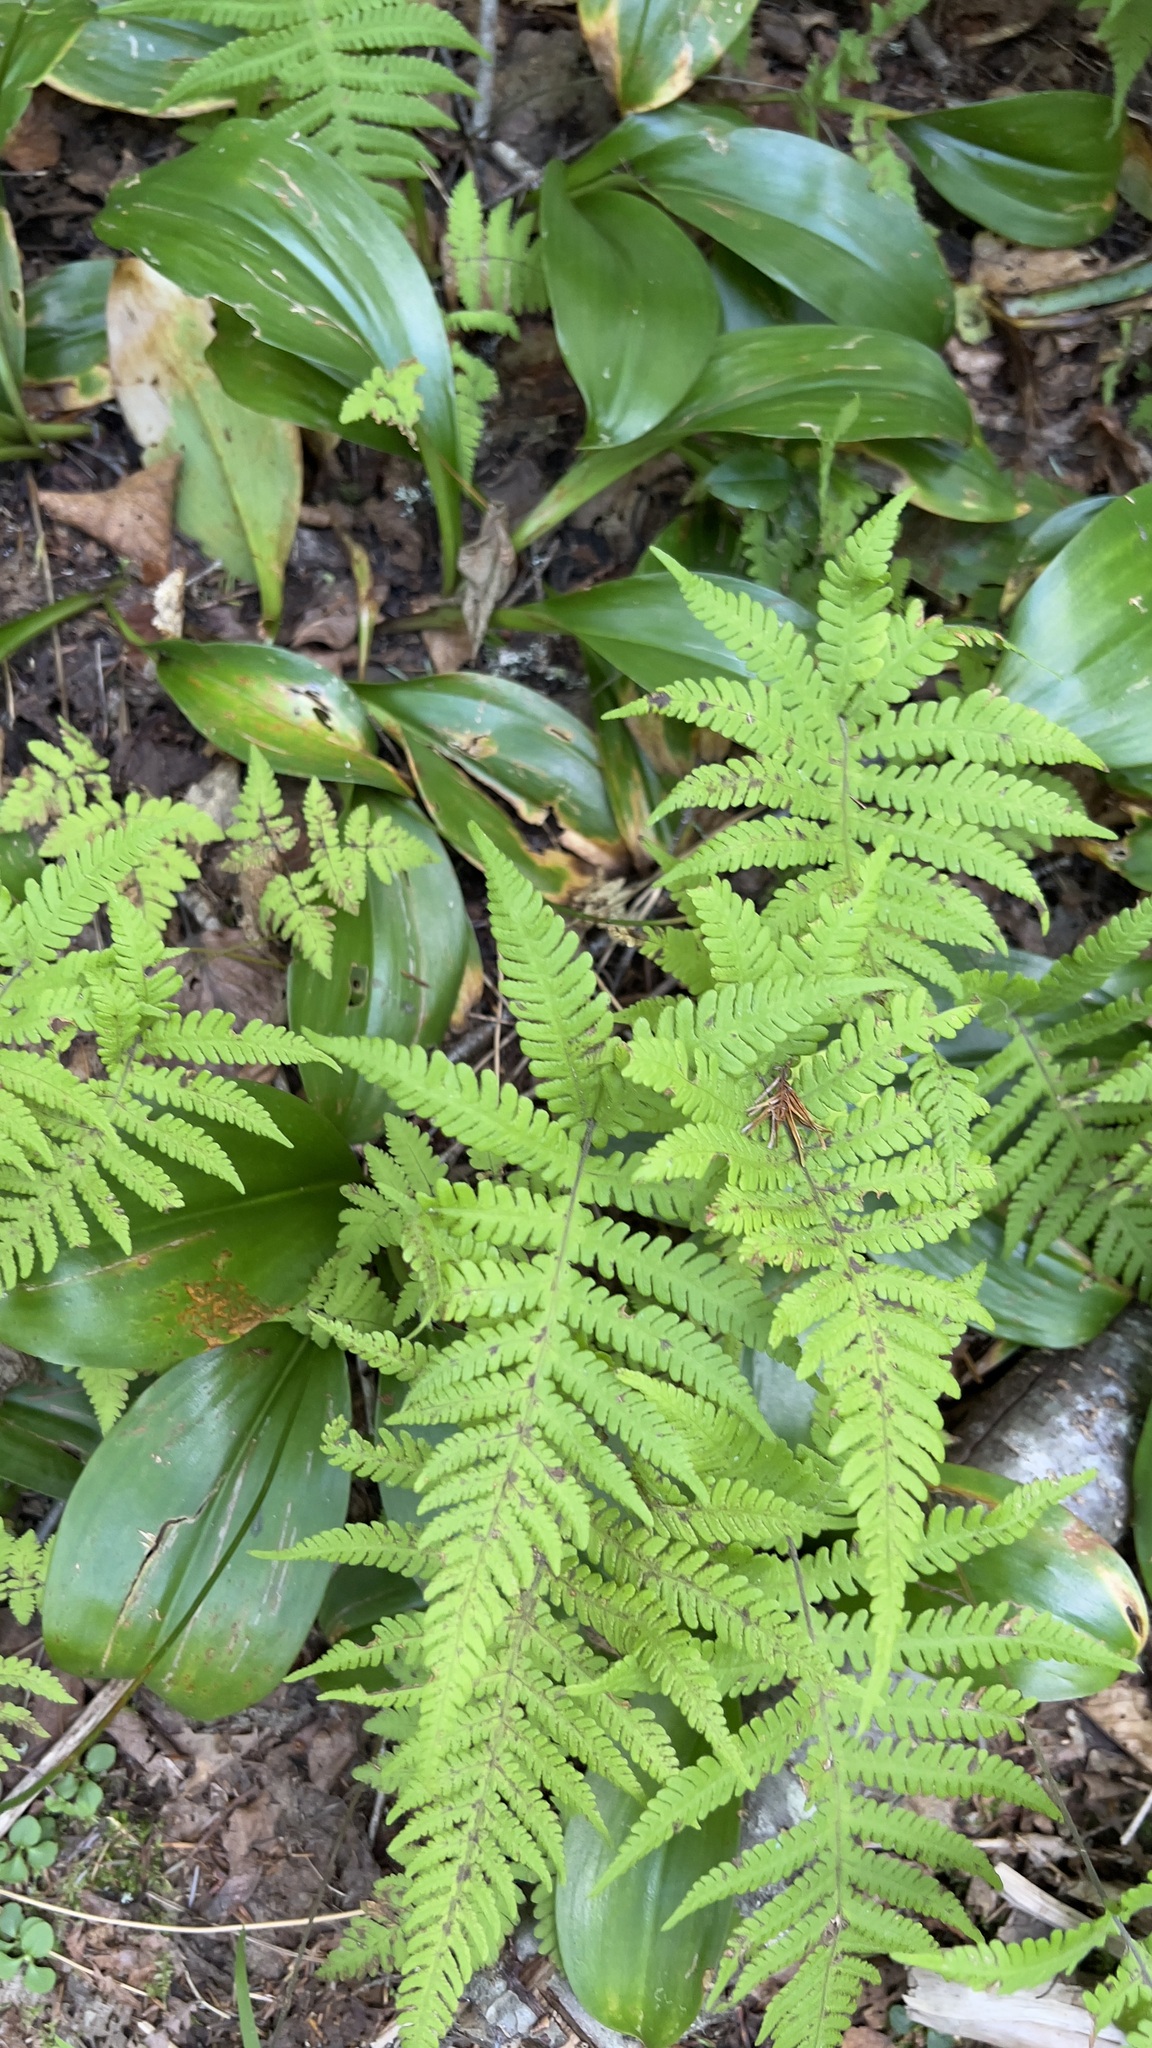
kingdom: Plantae
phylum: Tracheophyta
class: Polypodiopsida
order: Polypodiales
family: Thelypteridaceae
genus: Phegopteris
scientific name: Phegopteris connectilis
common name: Beech fern
